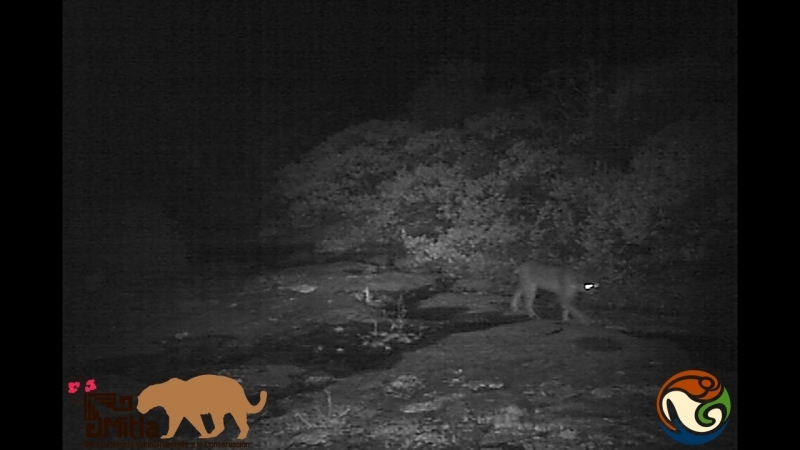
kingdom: Animalia
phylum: Chordata
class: Mammalia
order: Carnivora
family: Felidae
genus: Lynx
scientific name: Lynx rufus
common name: Bobcat
